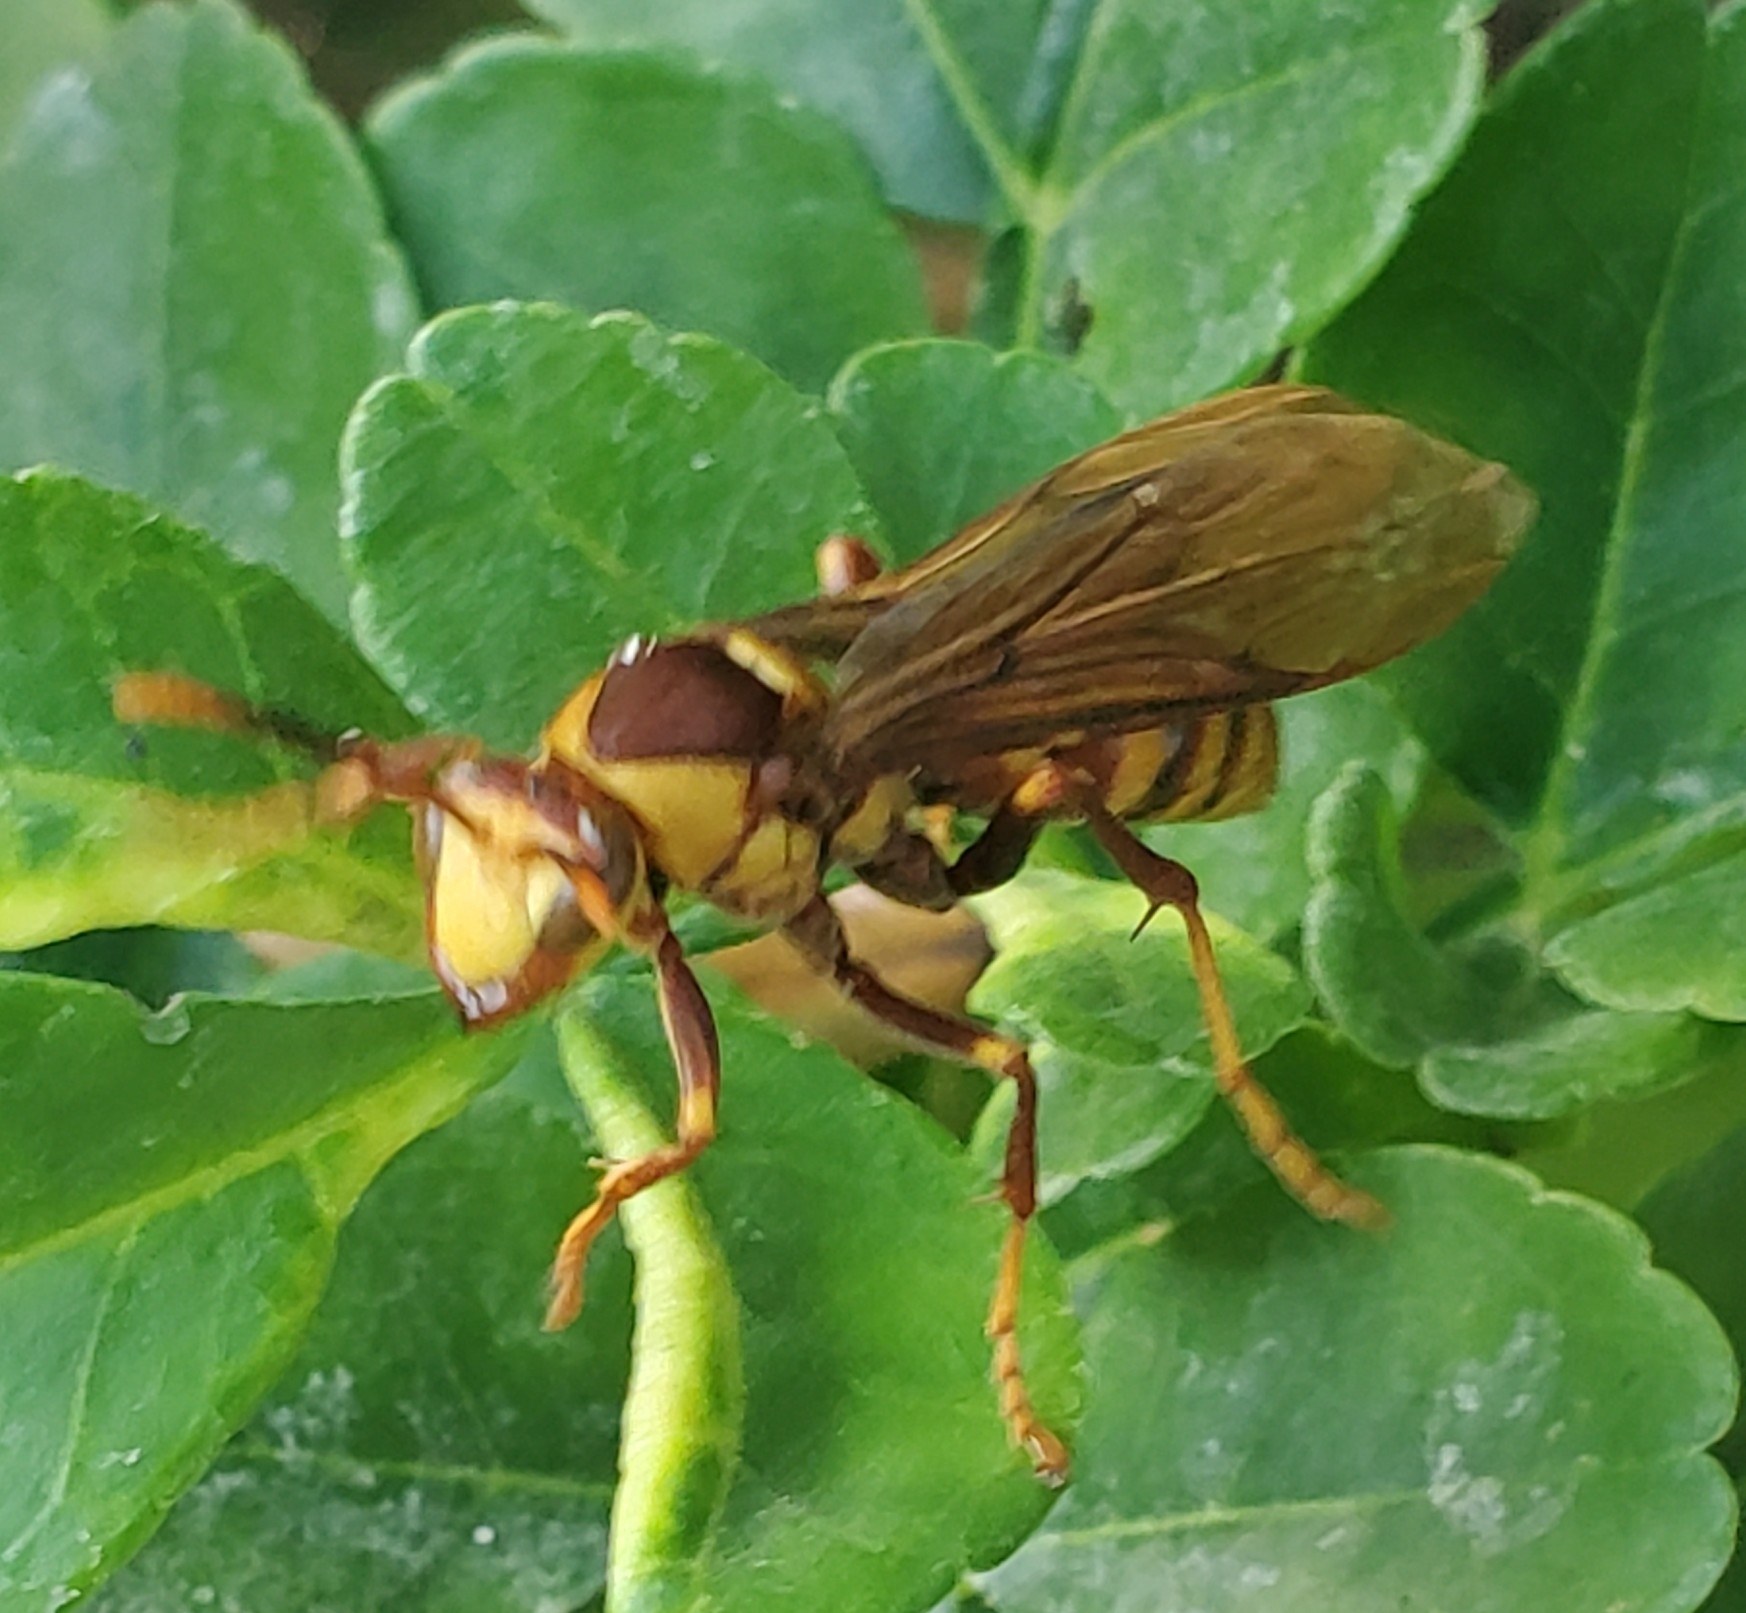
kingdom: Animalia
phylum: Arthropoda
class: Insecta
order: Hymenoptera
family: Eumenidae
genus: Polistes
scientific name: Polistes major
